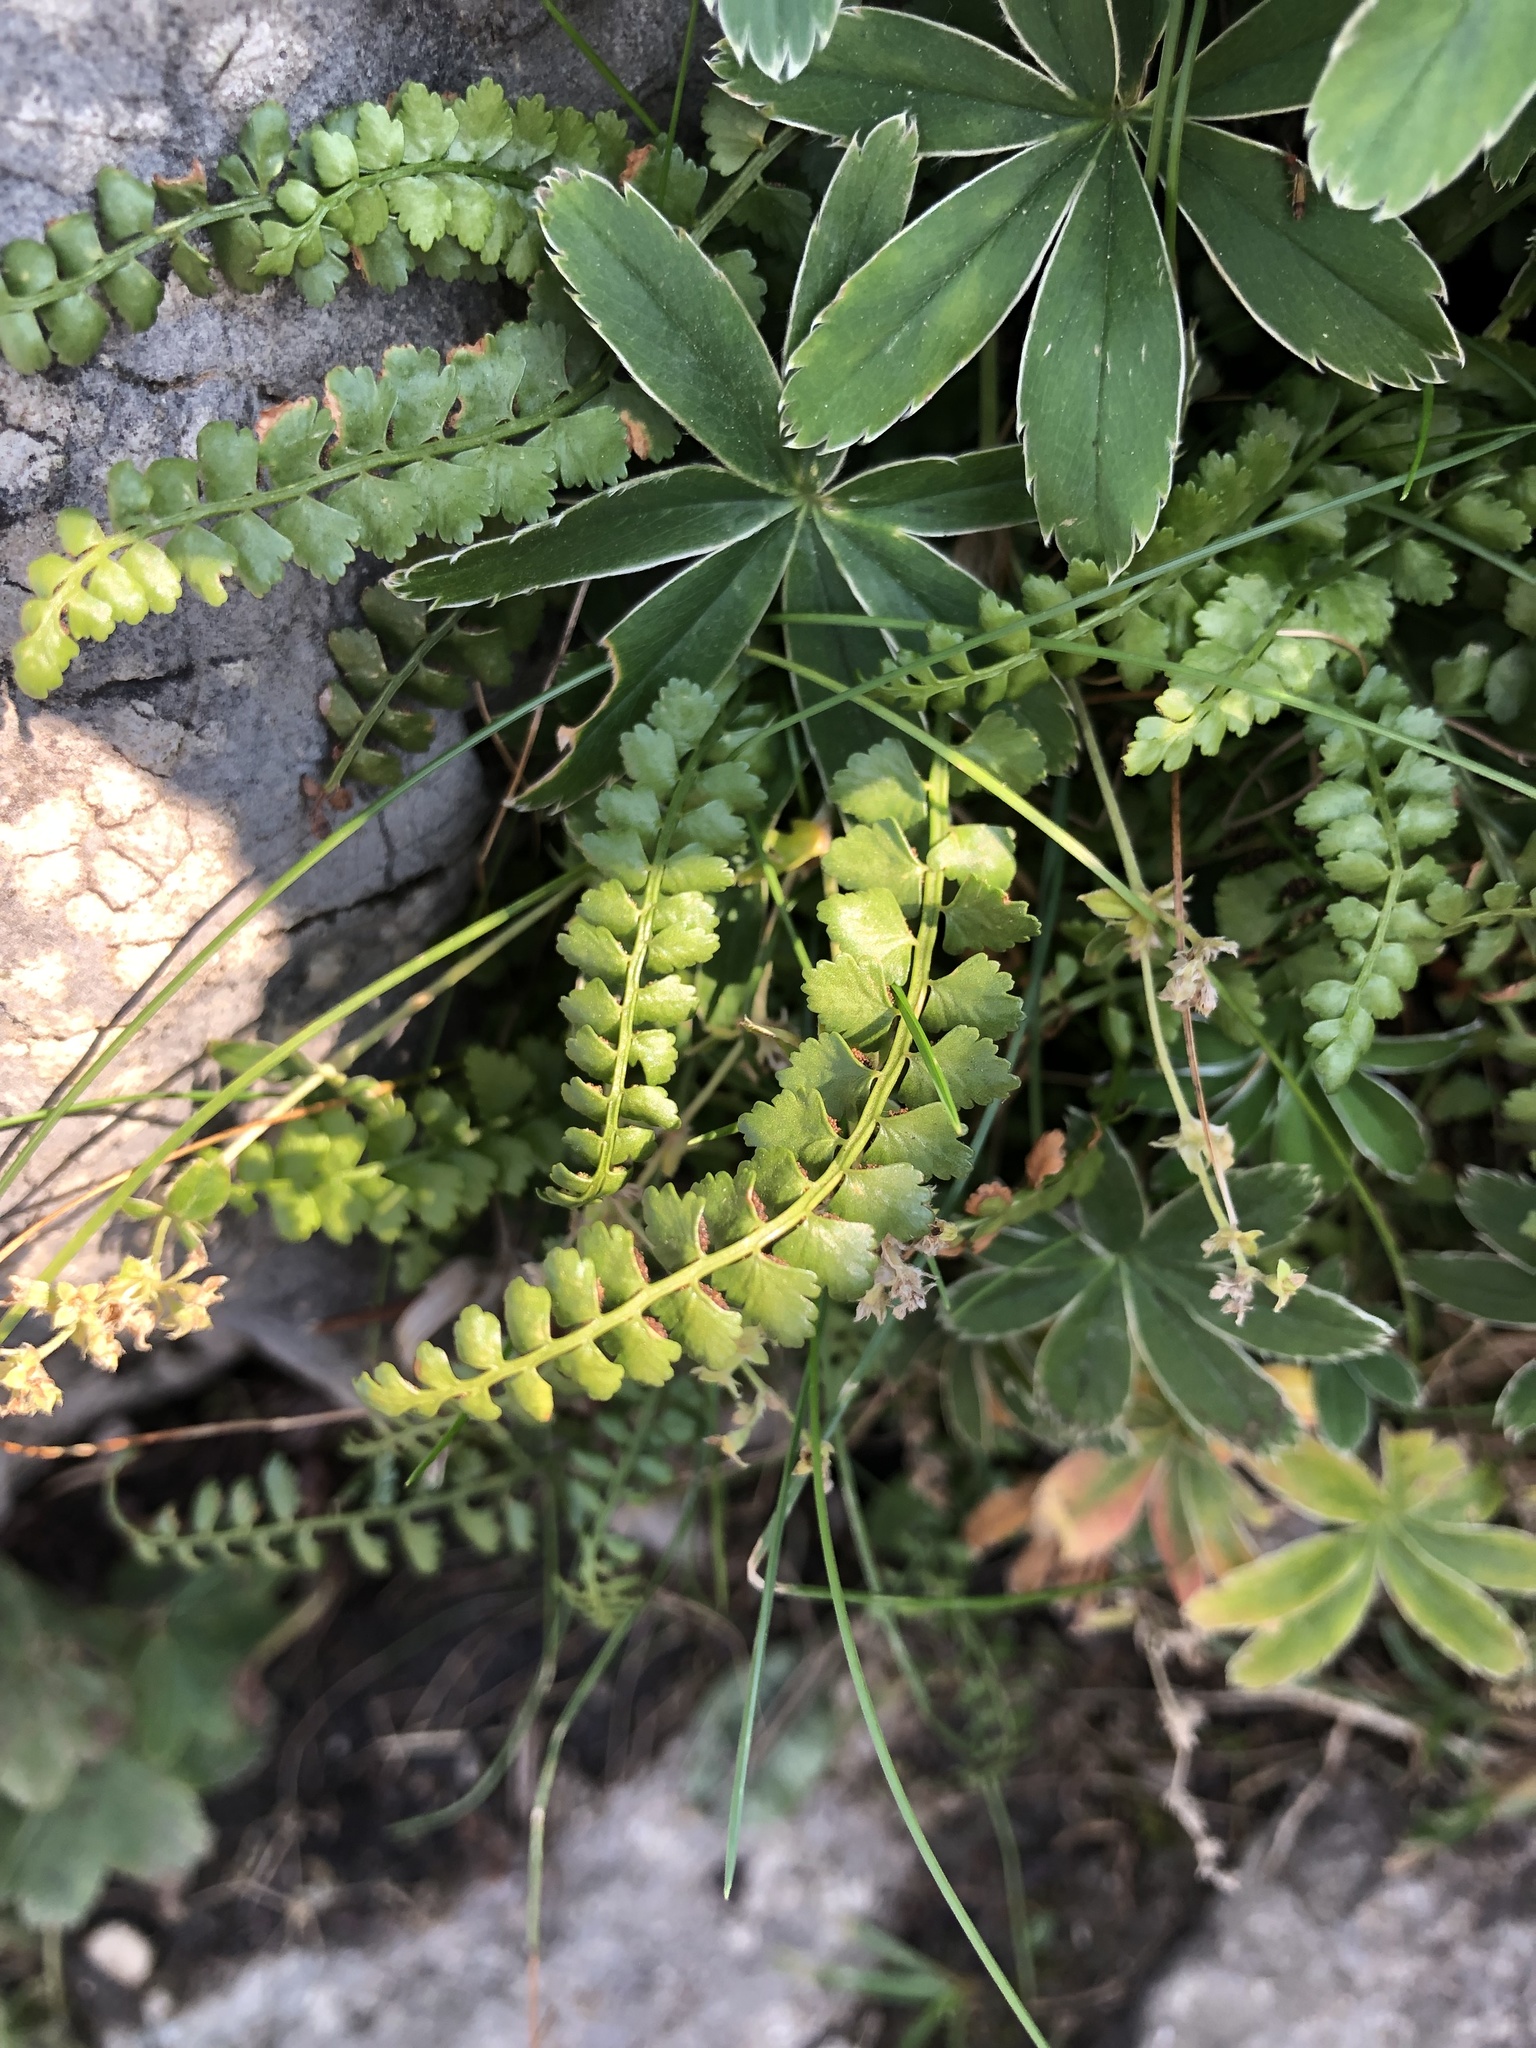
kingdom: Plantae
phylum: Tracheophyta
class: Polypodiopsida
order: Polypodiales
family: Aspleniaceae
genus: Asplenium
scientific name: Asplenium viride
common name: Green spleenwort
